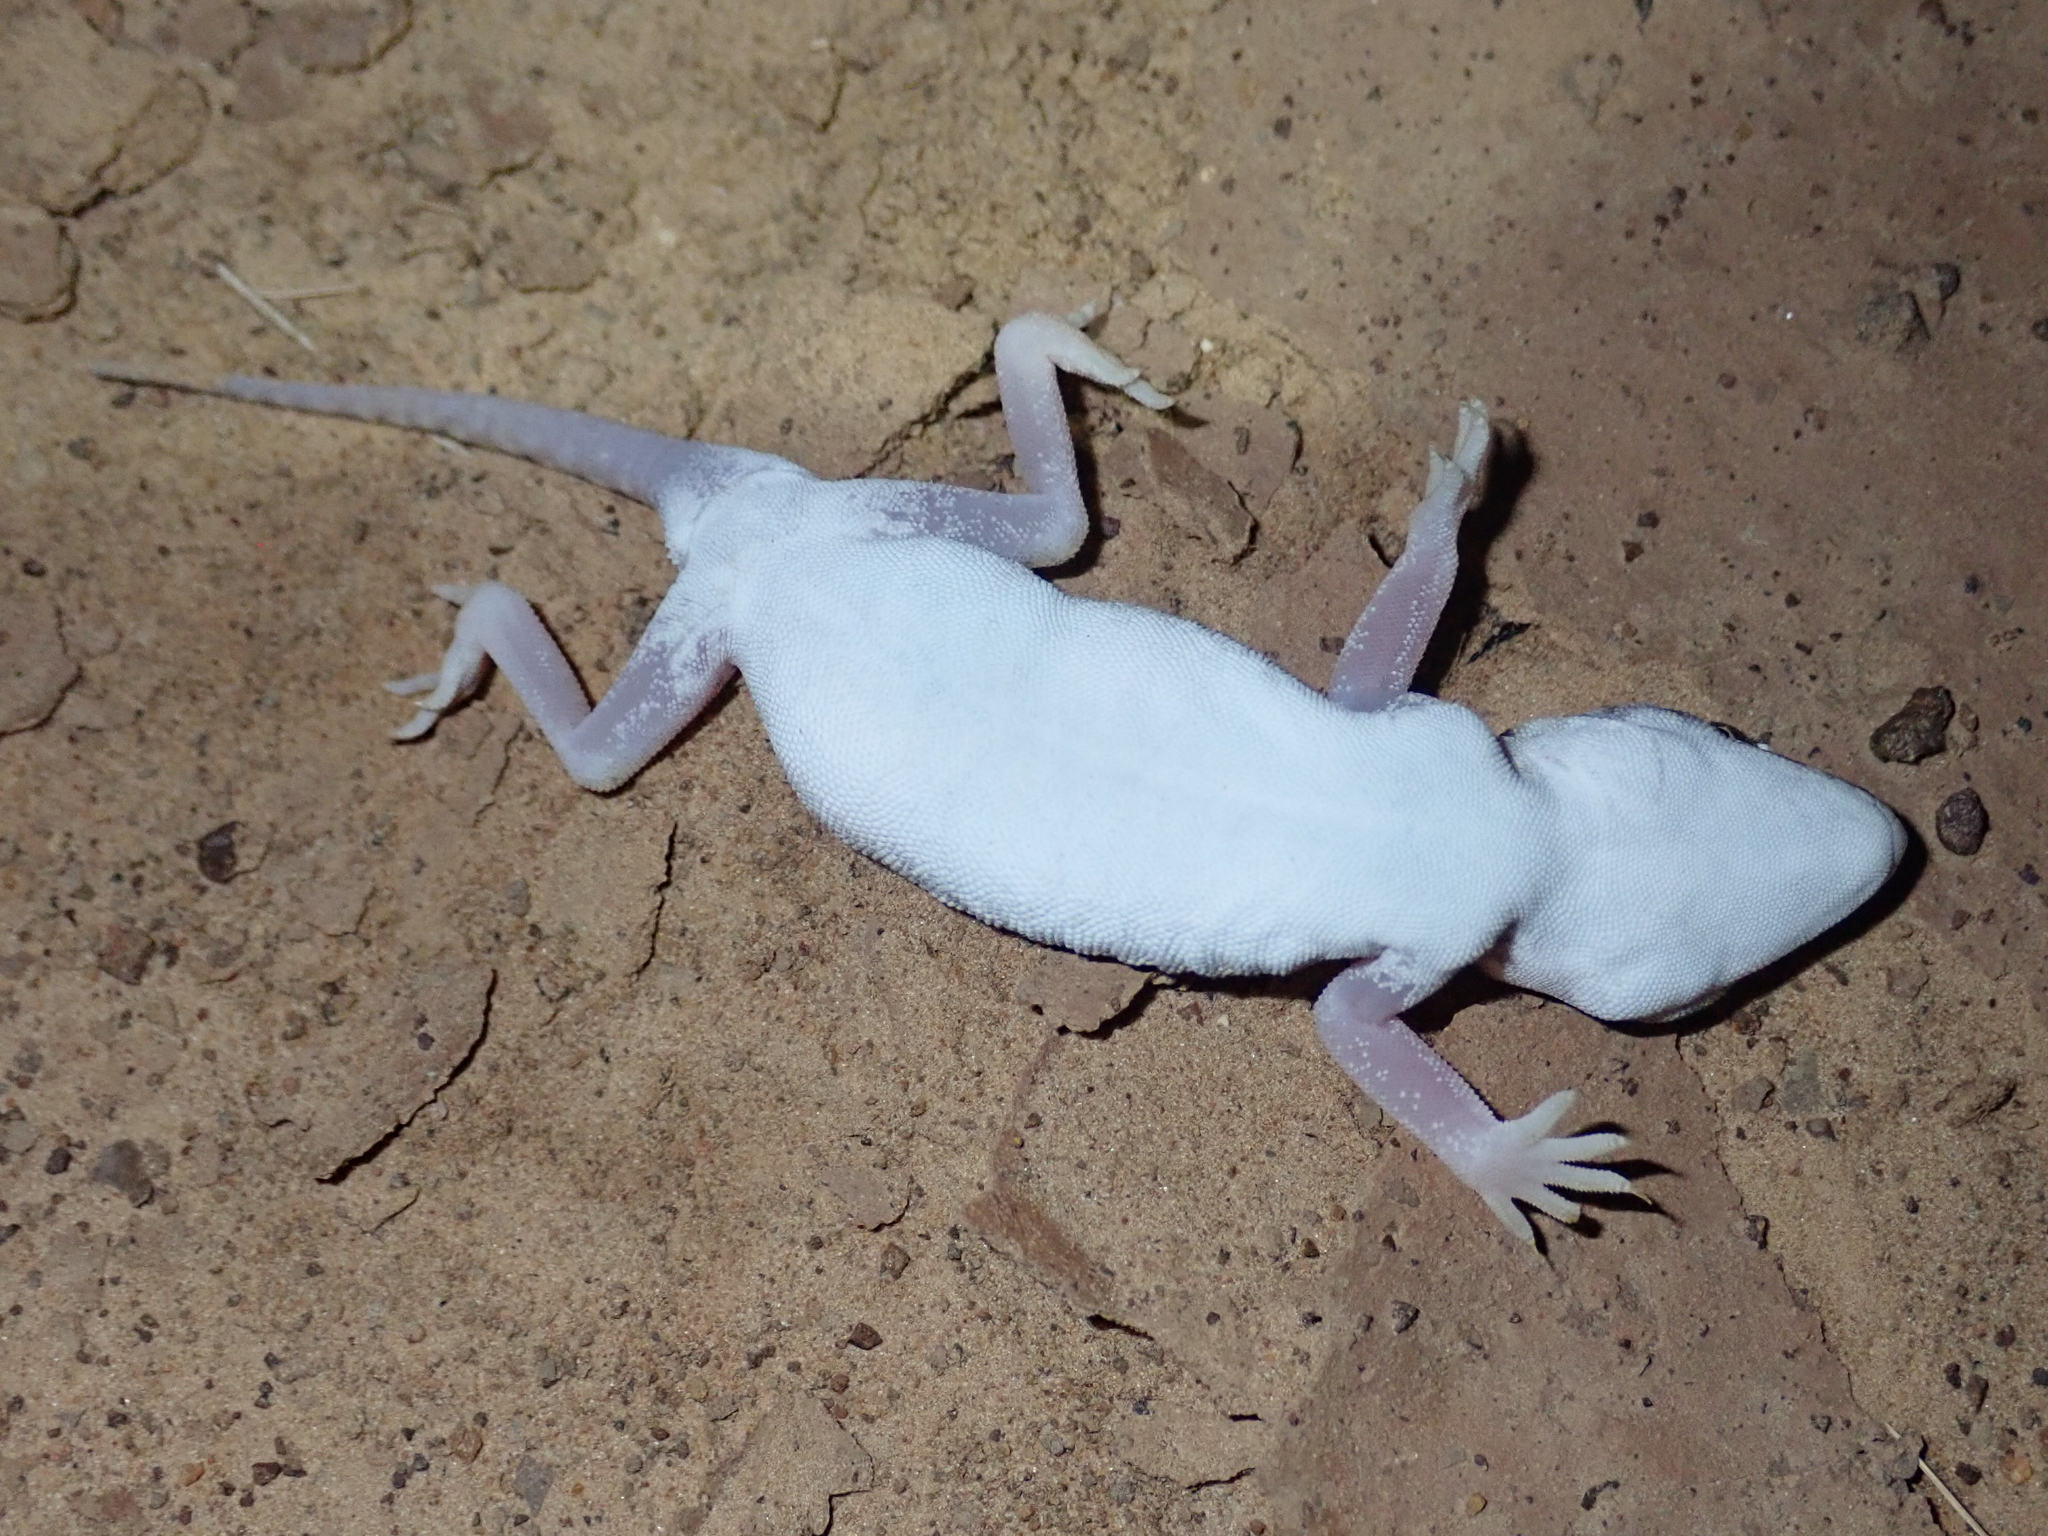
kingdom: Animalia
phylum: Chordata
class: Squamata
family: Gekkonidae
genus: Stenodactylus
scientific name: Stenodactylus petrii
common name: Anderson's short-fingered gecko
